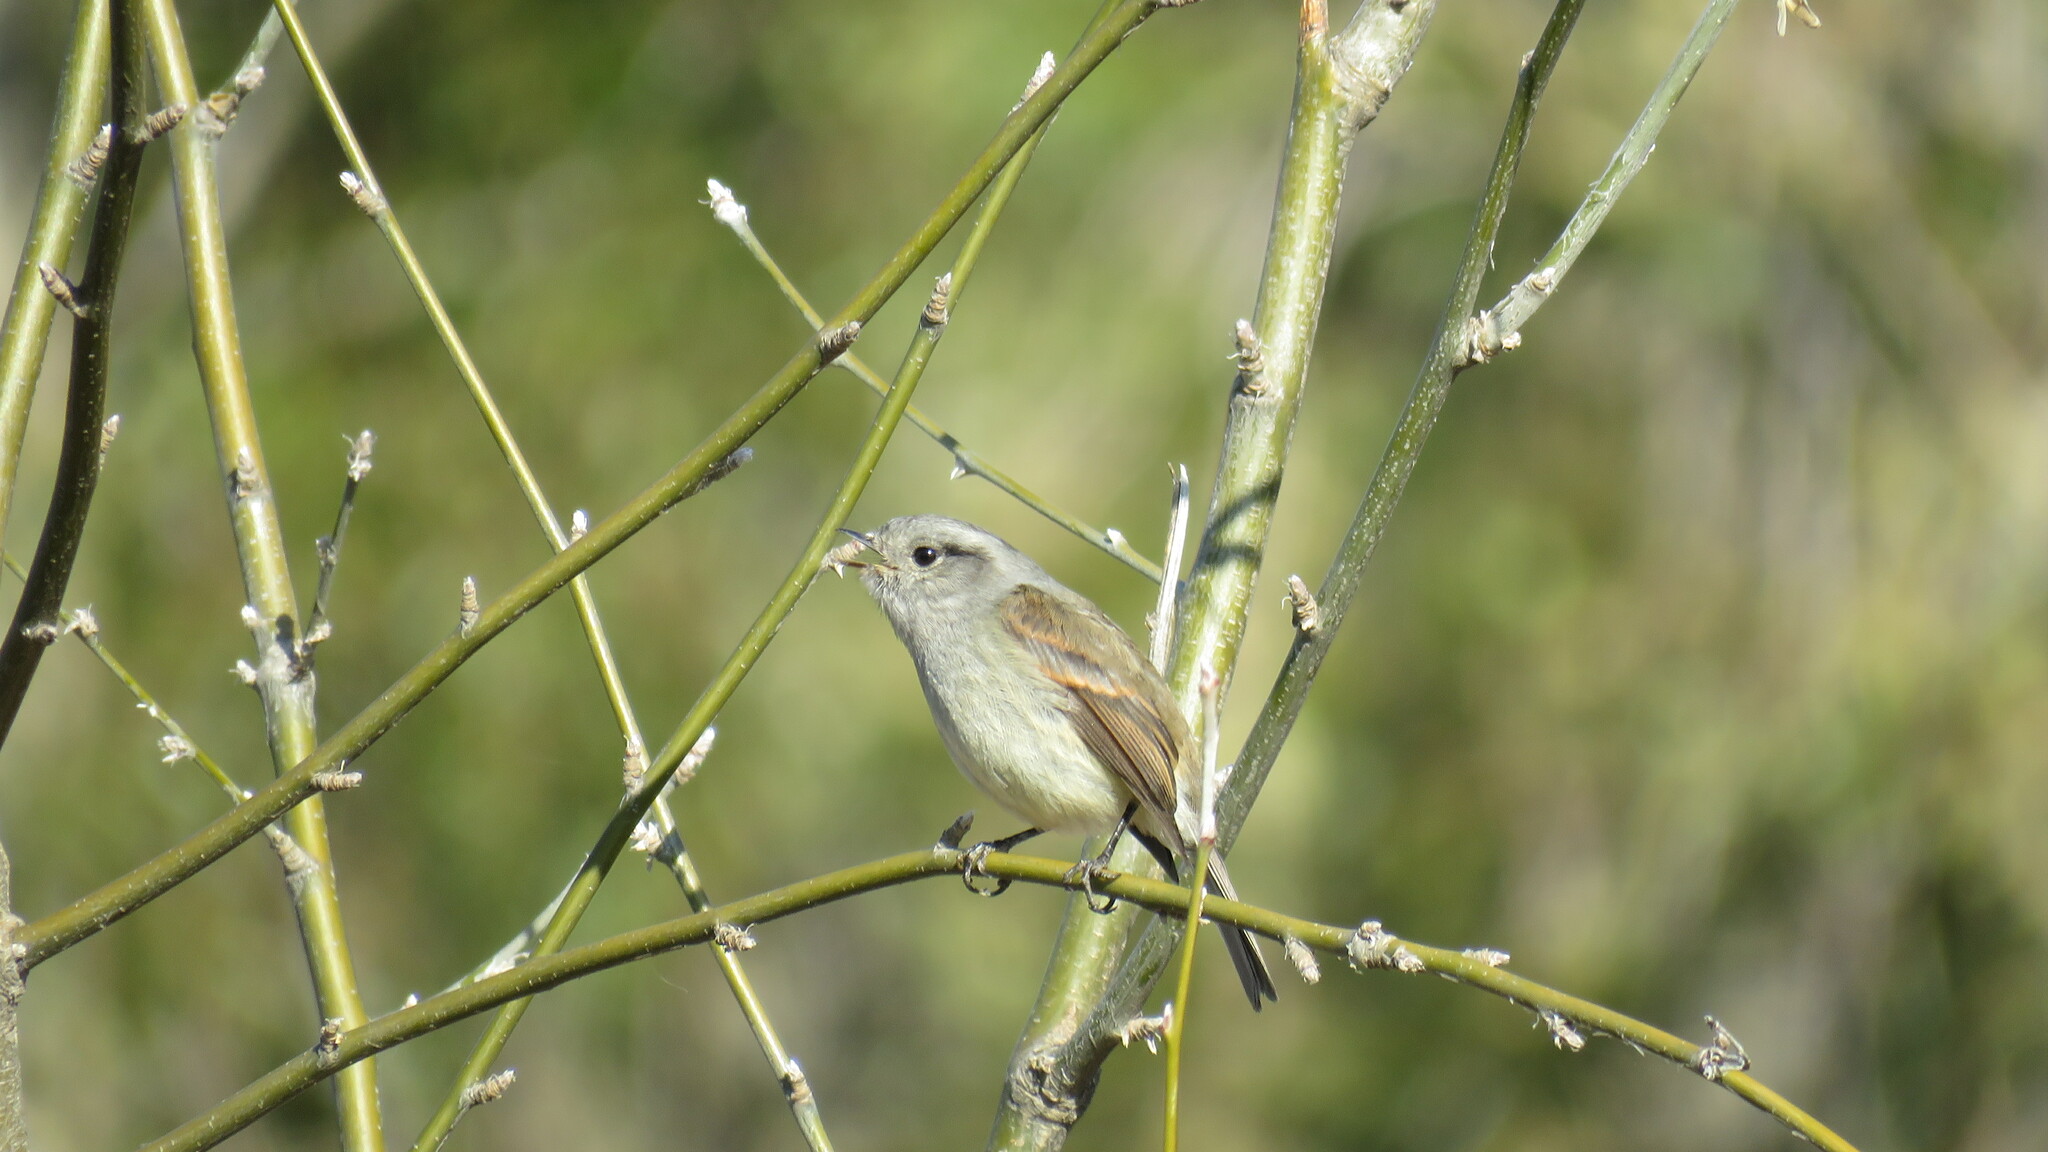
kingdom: Animalia
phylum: Chordata
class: Aves
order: Passeriformes
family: Tyrannidae
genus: Colorhamphus
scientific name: Colorhamphus parvirostris
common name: Patagonian tyrant
